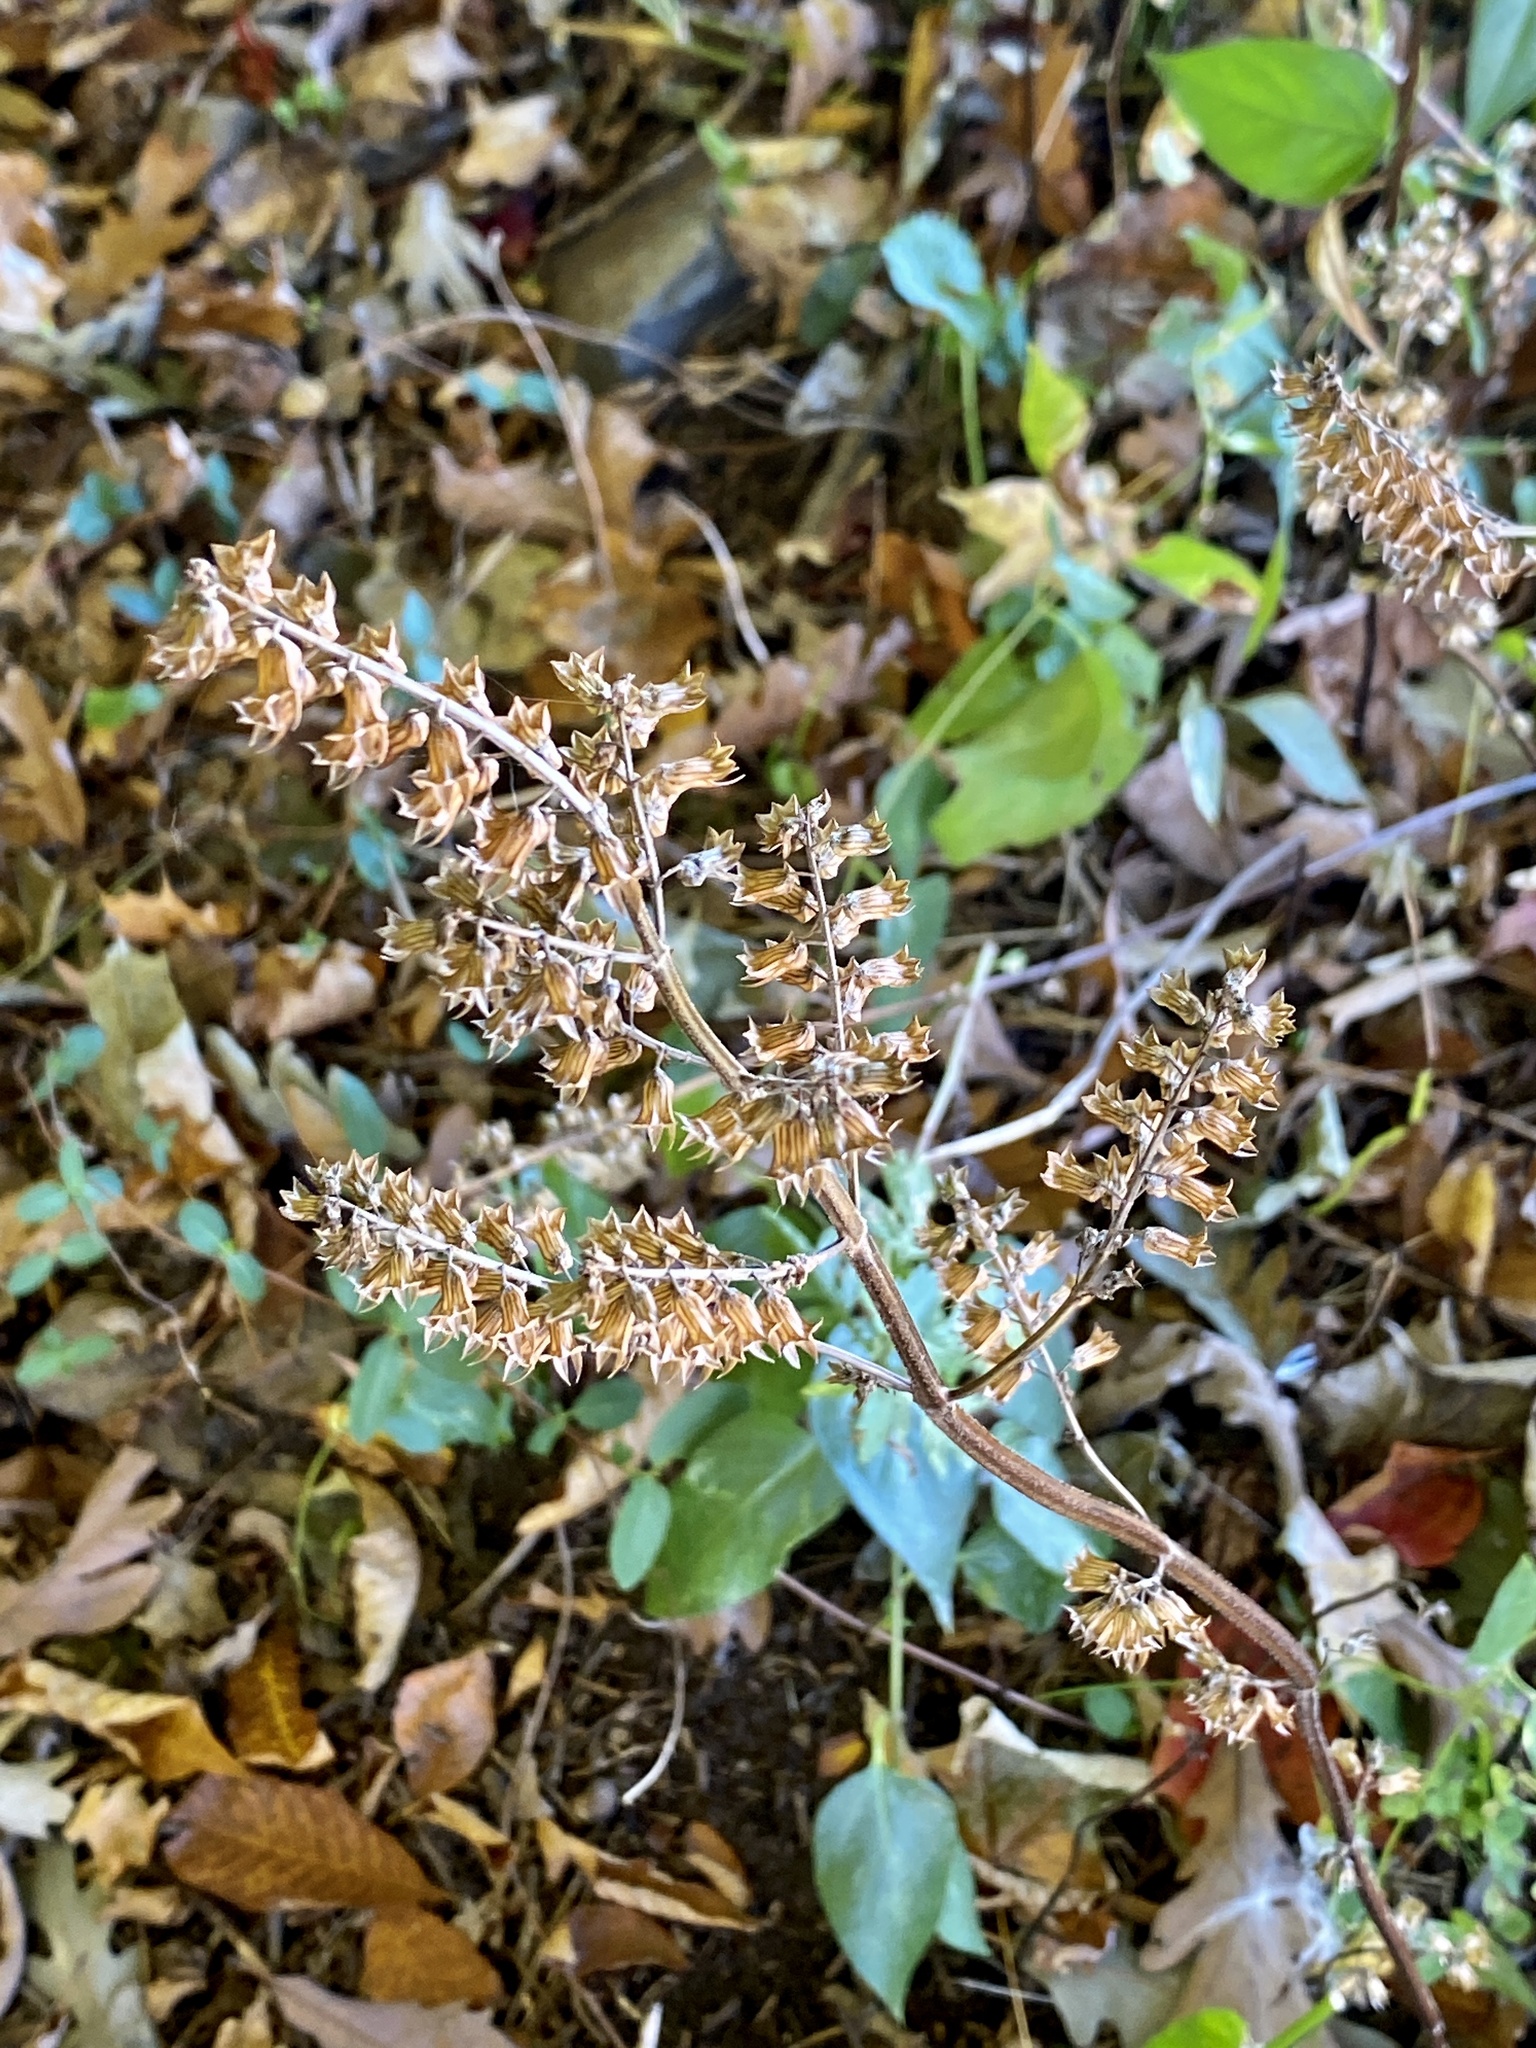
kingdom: Plantae
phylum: Tracheophyta
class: Magnoliopsida
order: Lamiales
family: Lamiaceae
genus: Perilla
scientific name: Perilla frutescens
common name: Perilla
